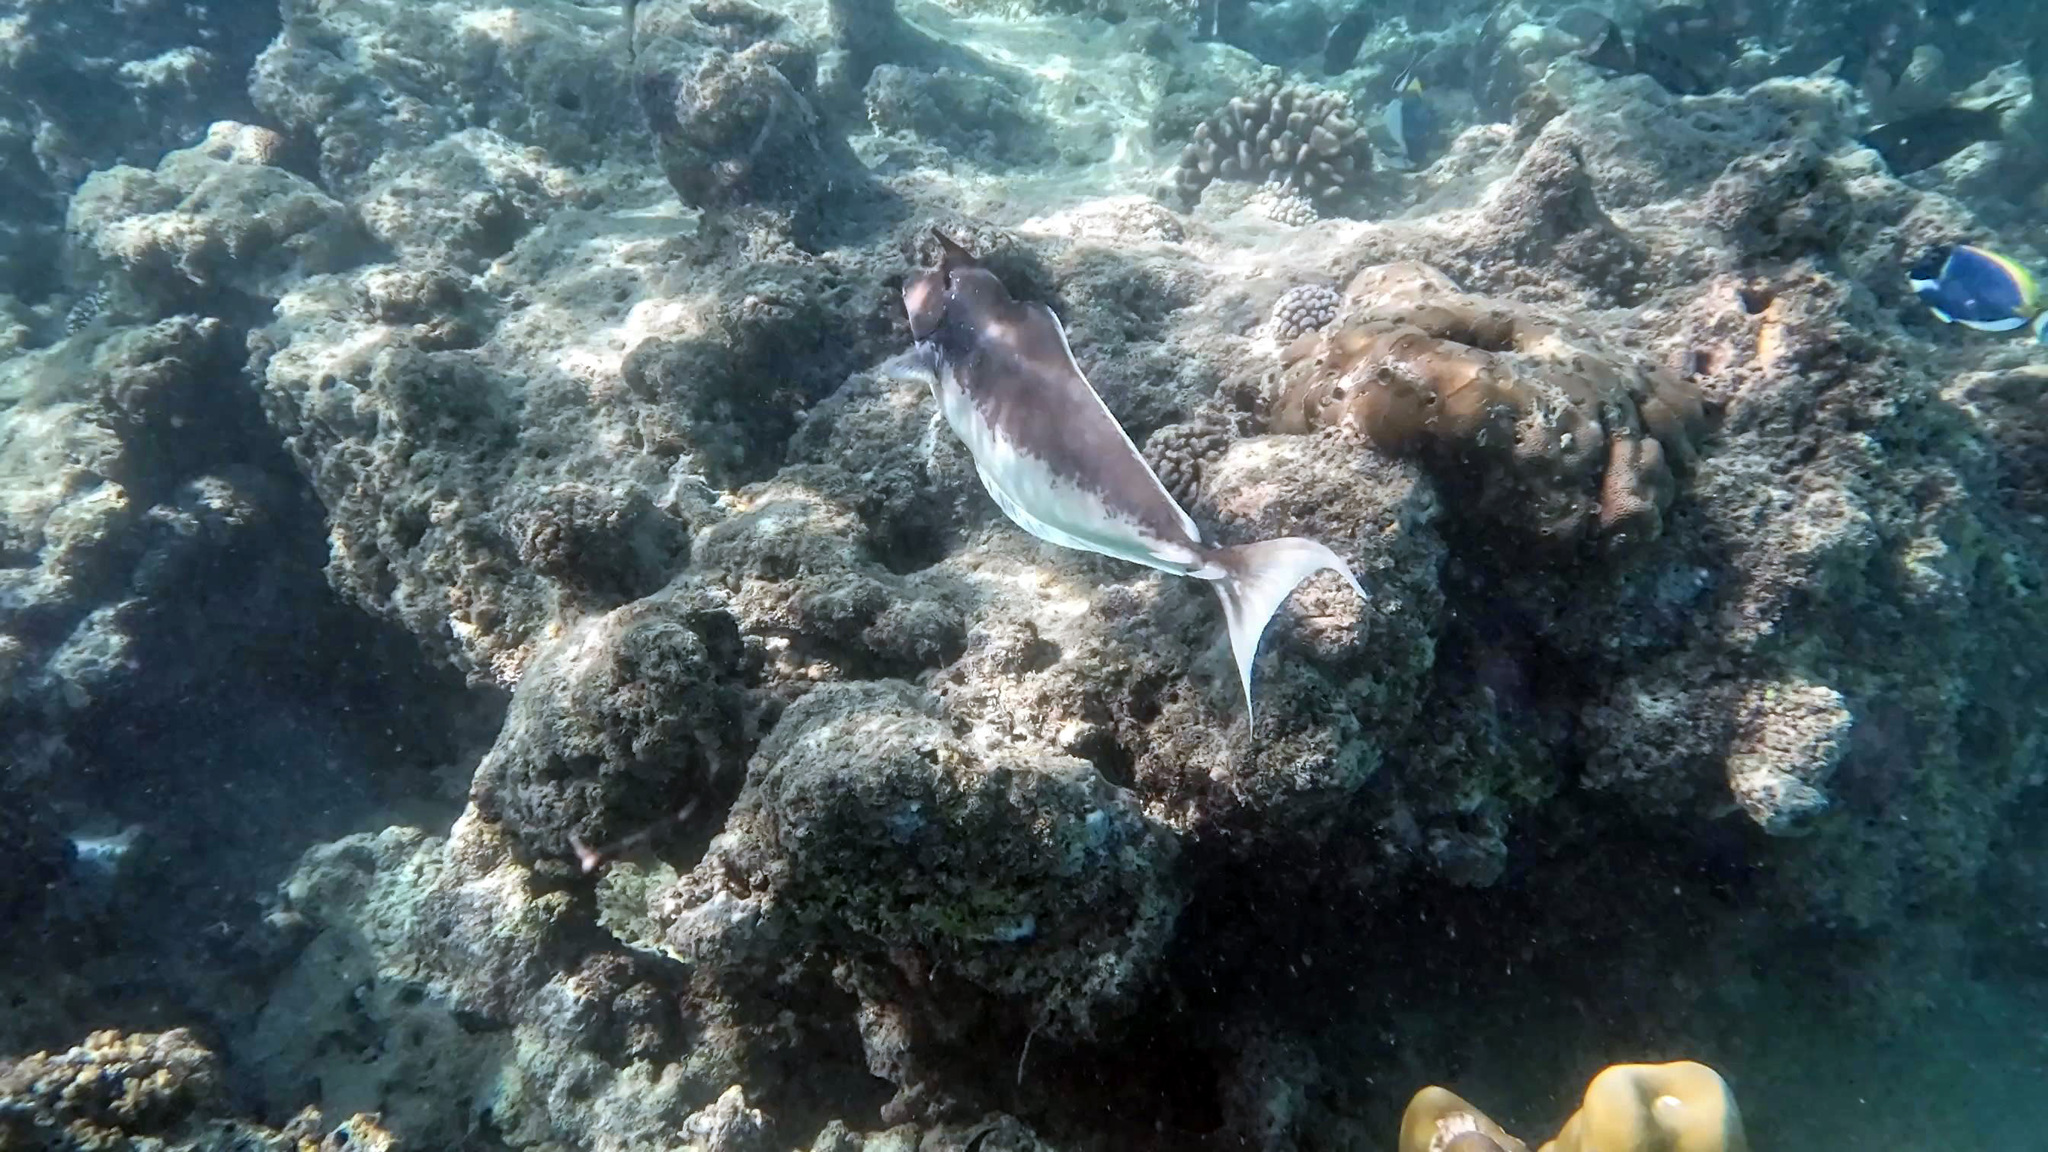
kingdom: Animalia
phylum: Chordata
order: Perciformes
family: Acanthuridae
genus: Naso
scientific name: Naso brachycentron
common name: Humpback unicornfish
